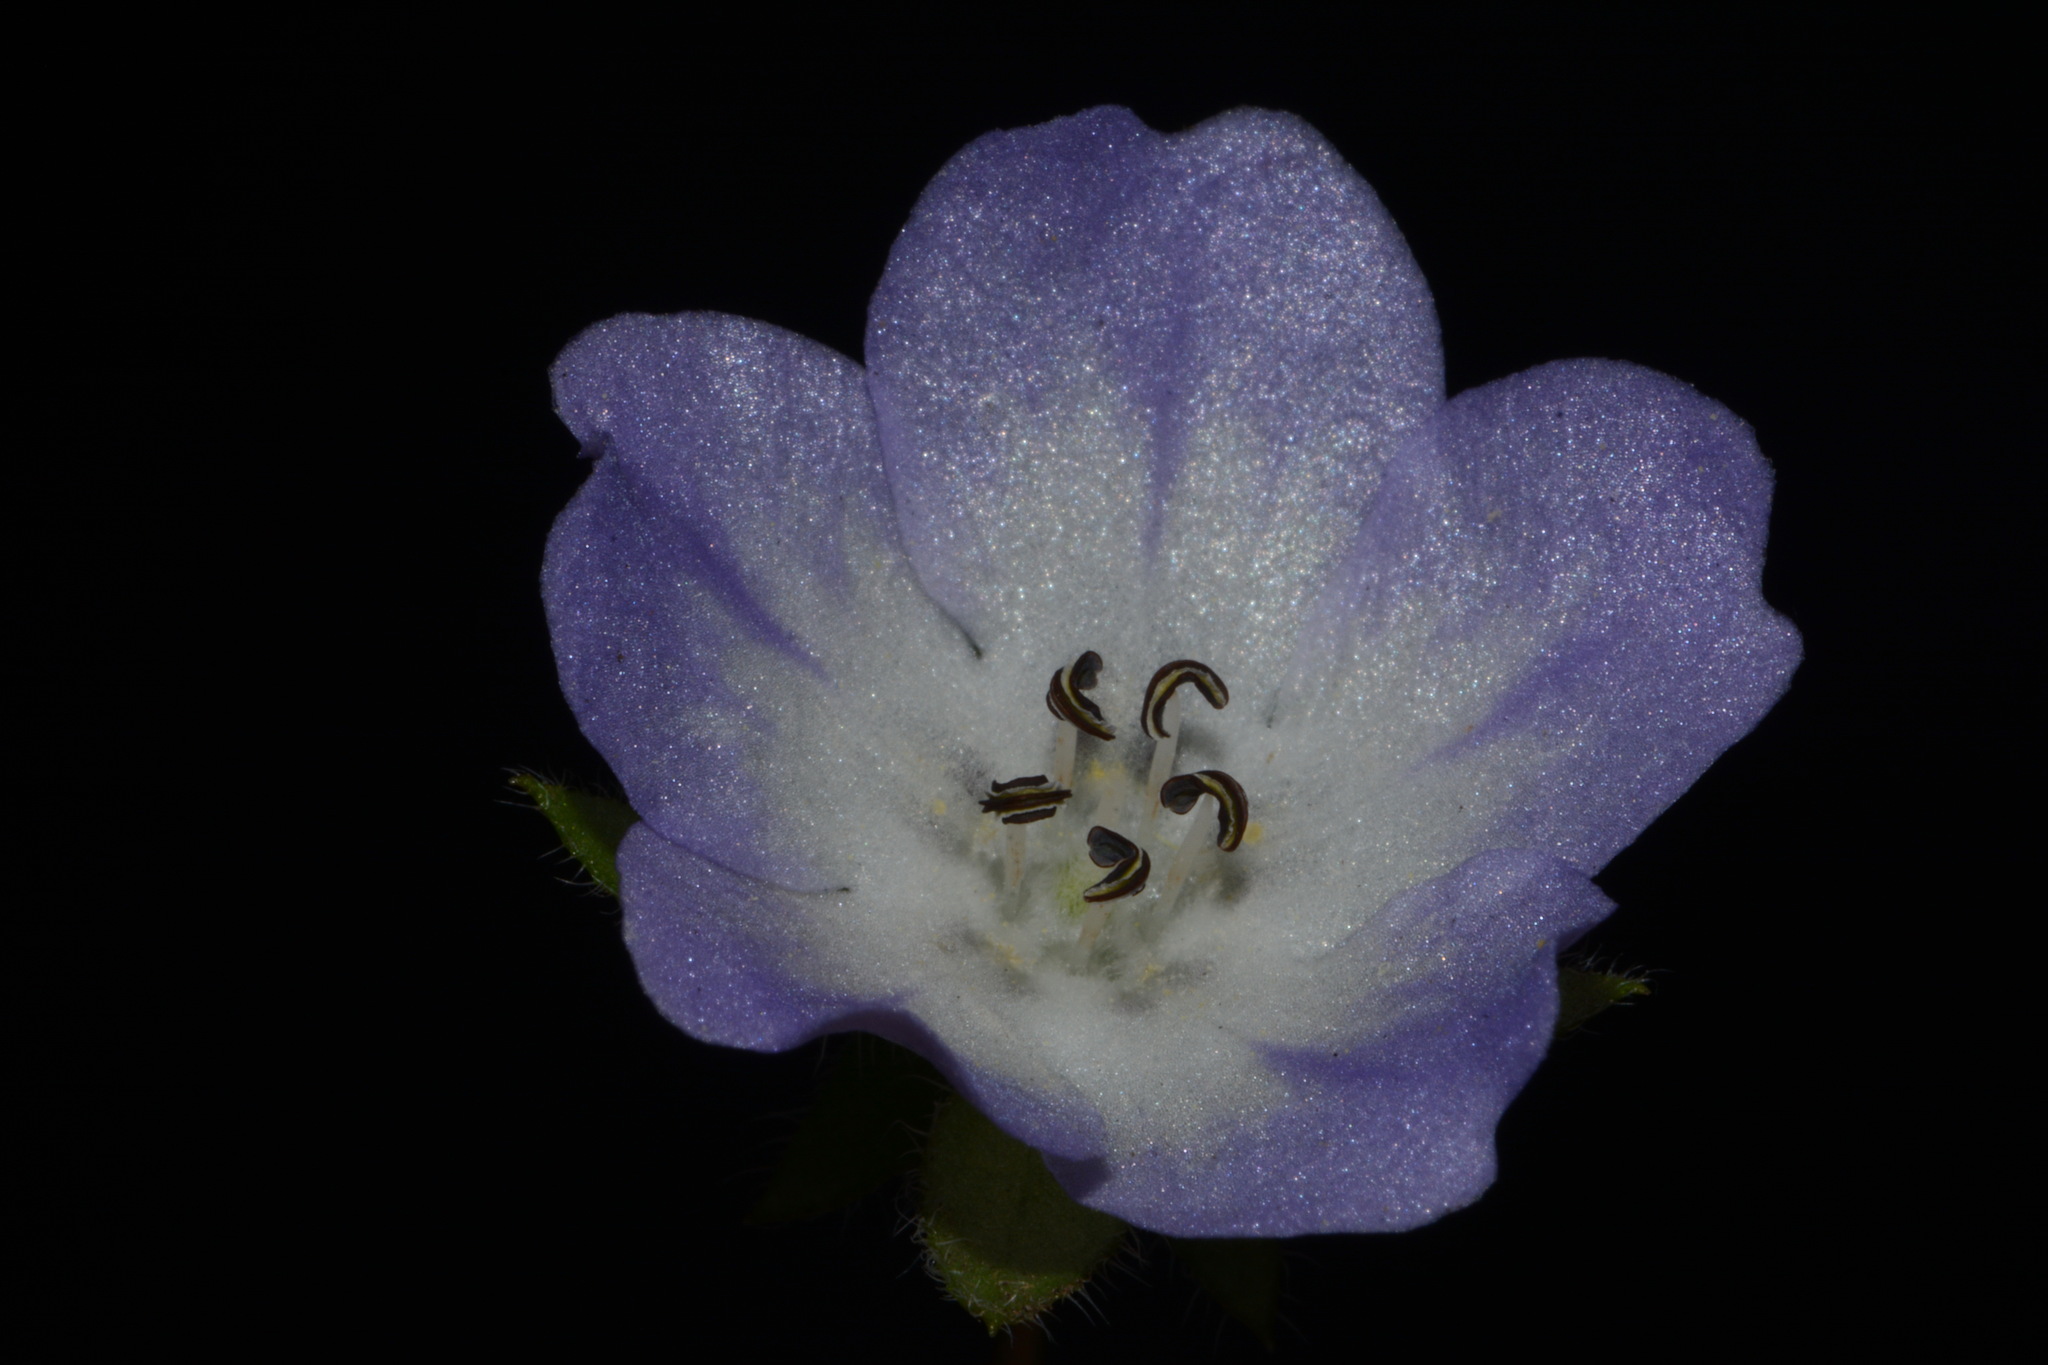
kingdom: Plantae
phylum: Tracheophyta
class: Magnoliopsida
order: Boraginales
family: Hydrophyllaceae
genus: Nemophila
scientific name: Nemophila phacelioides
